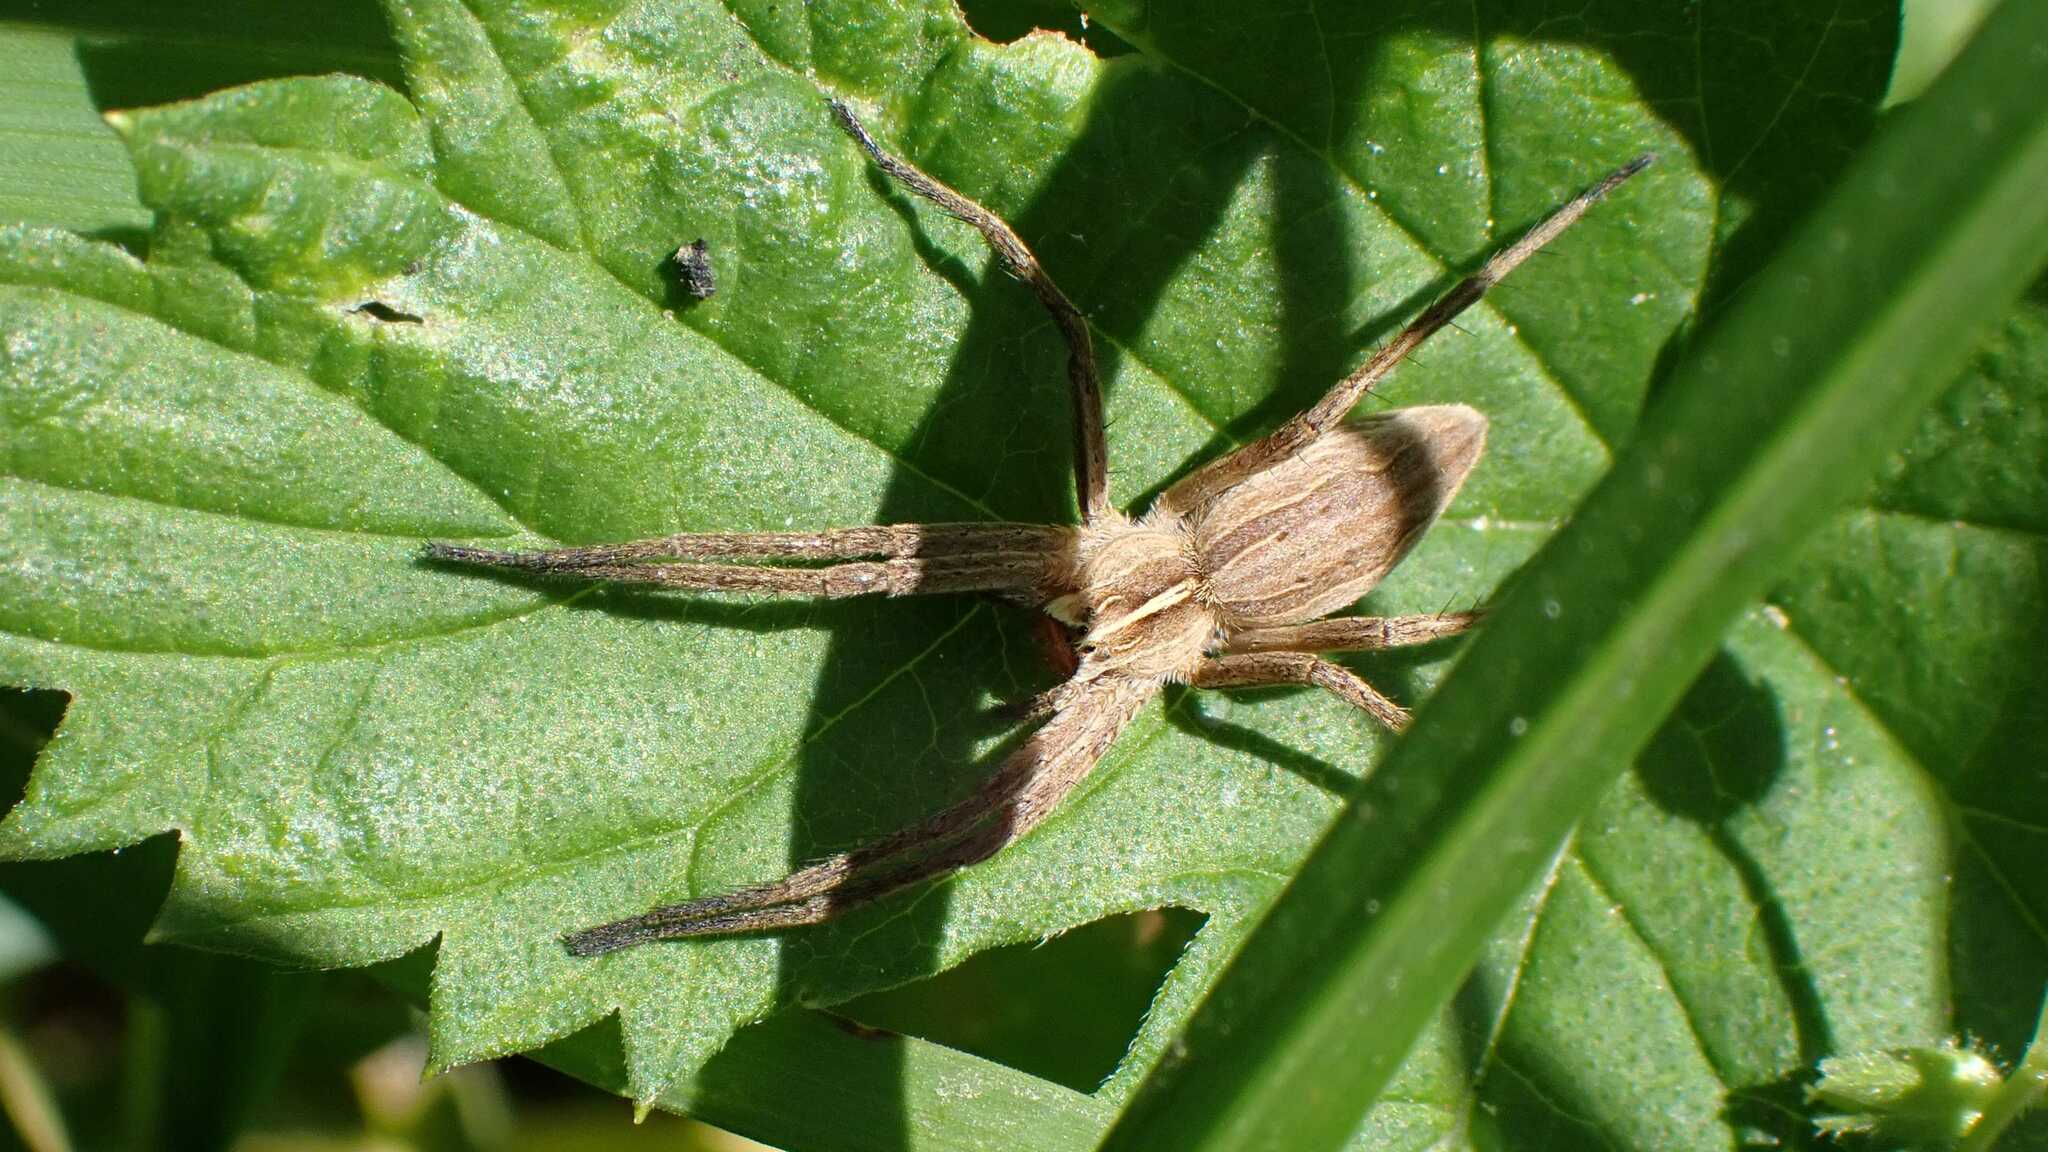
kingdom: Animalia
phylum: Arthropoda
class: Arachnida
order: Araneae
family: Pisauridae
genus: Pisaura
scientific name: Pisaura mirabilis
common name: Tent spider
